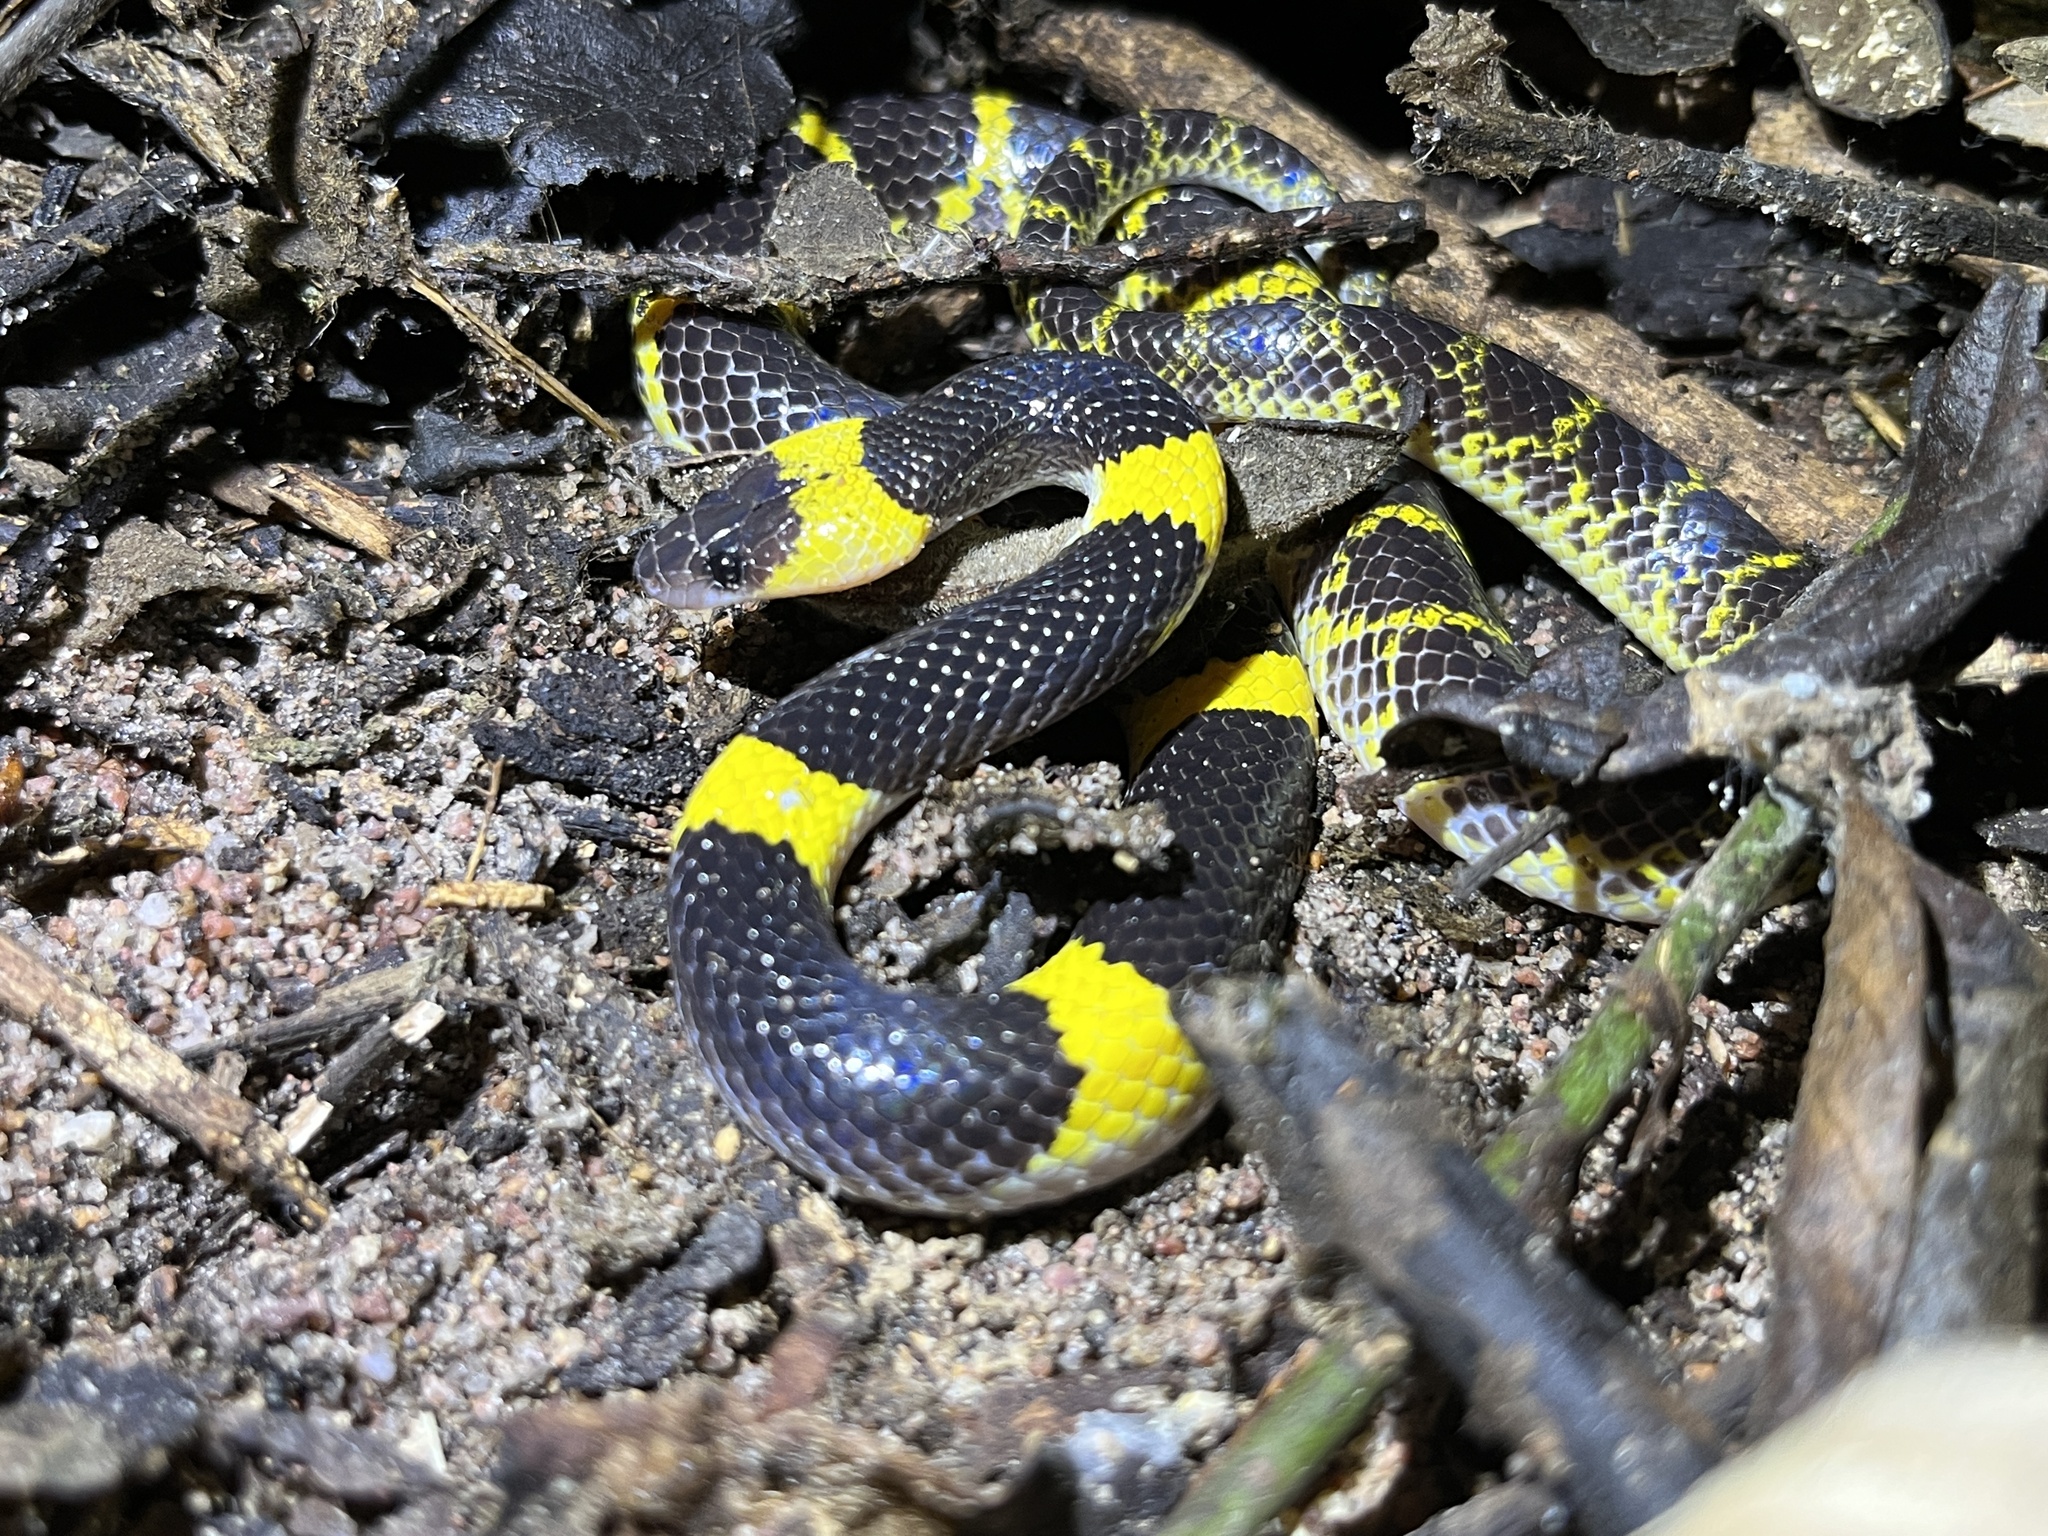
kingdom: Animalia
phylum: Chordata
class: Squamata
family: Colubridae
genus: Lycodon
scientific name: Lycodon laoensis
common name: Laotian wolf snake
